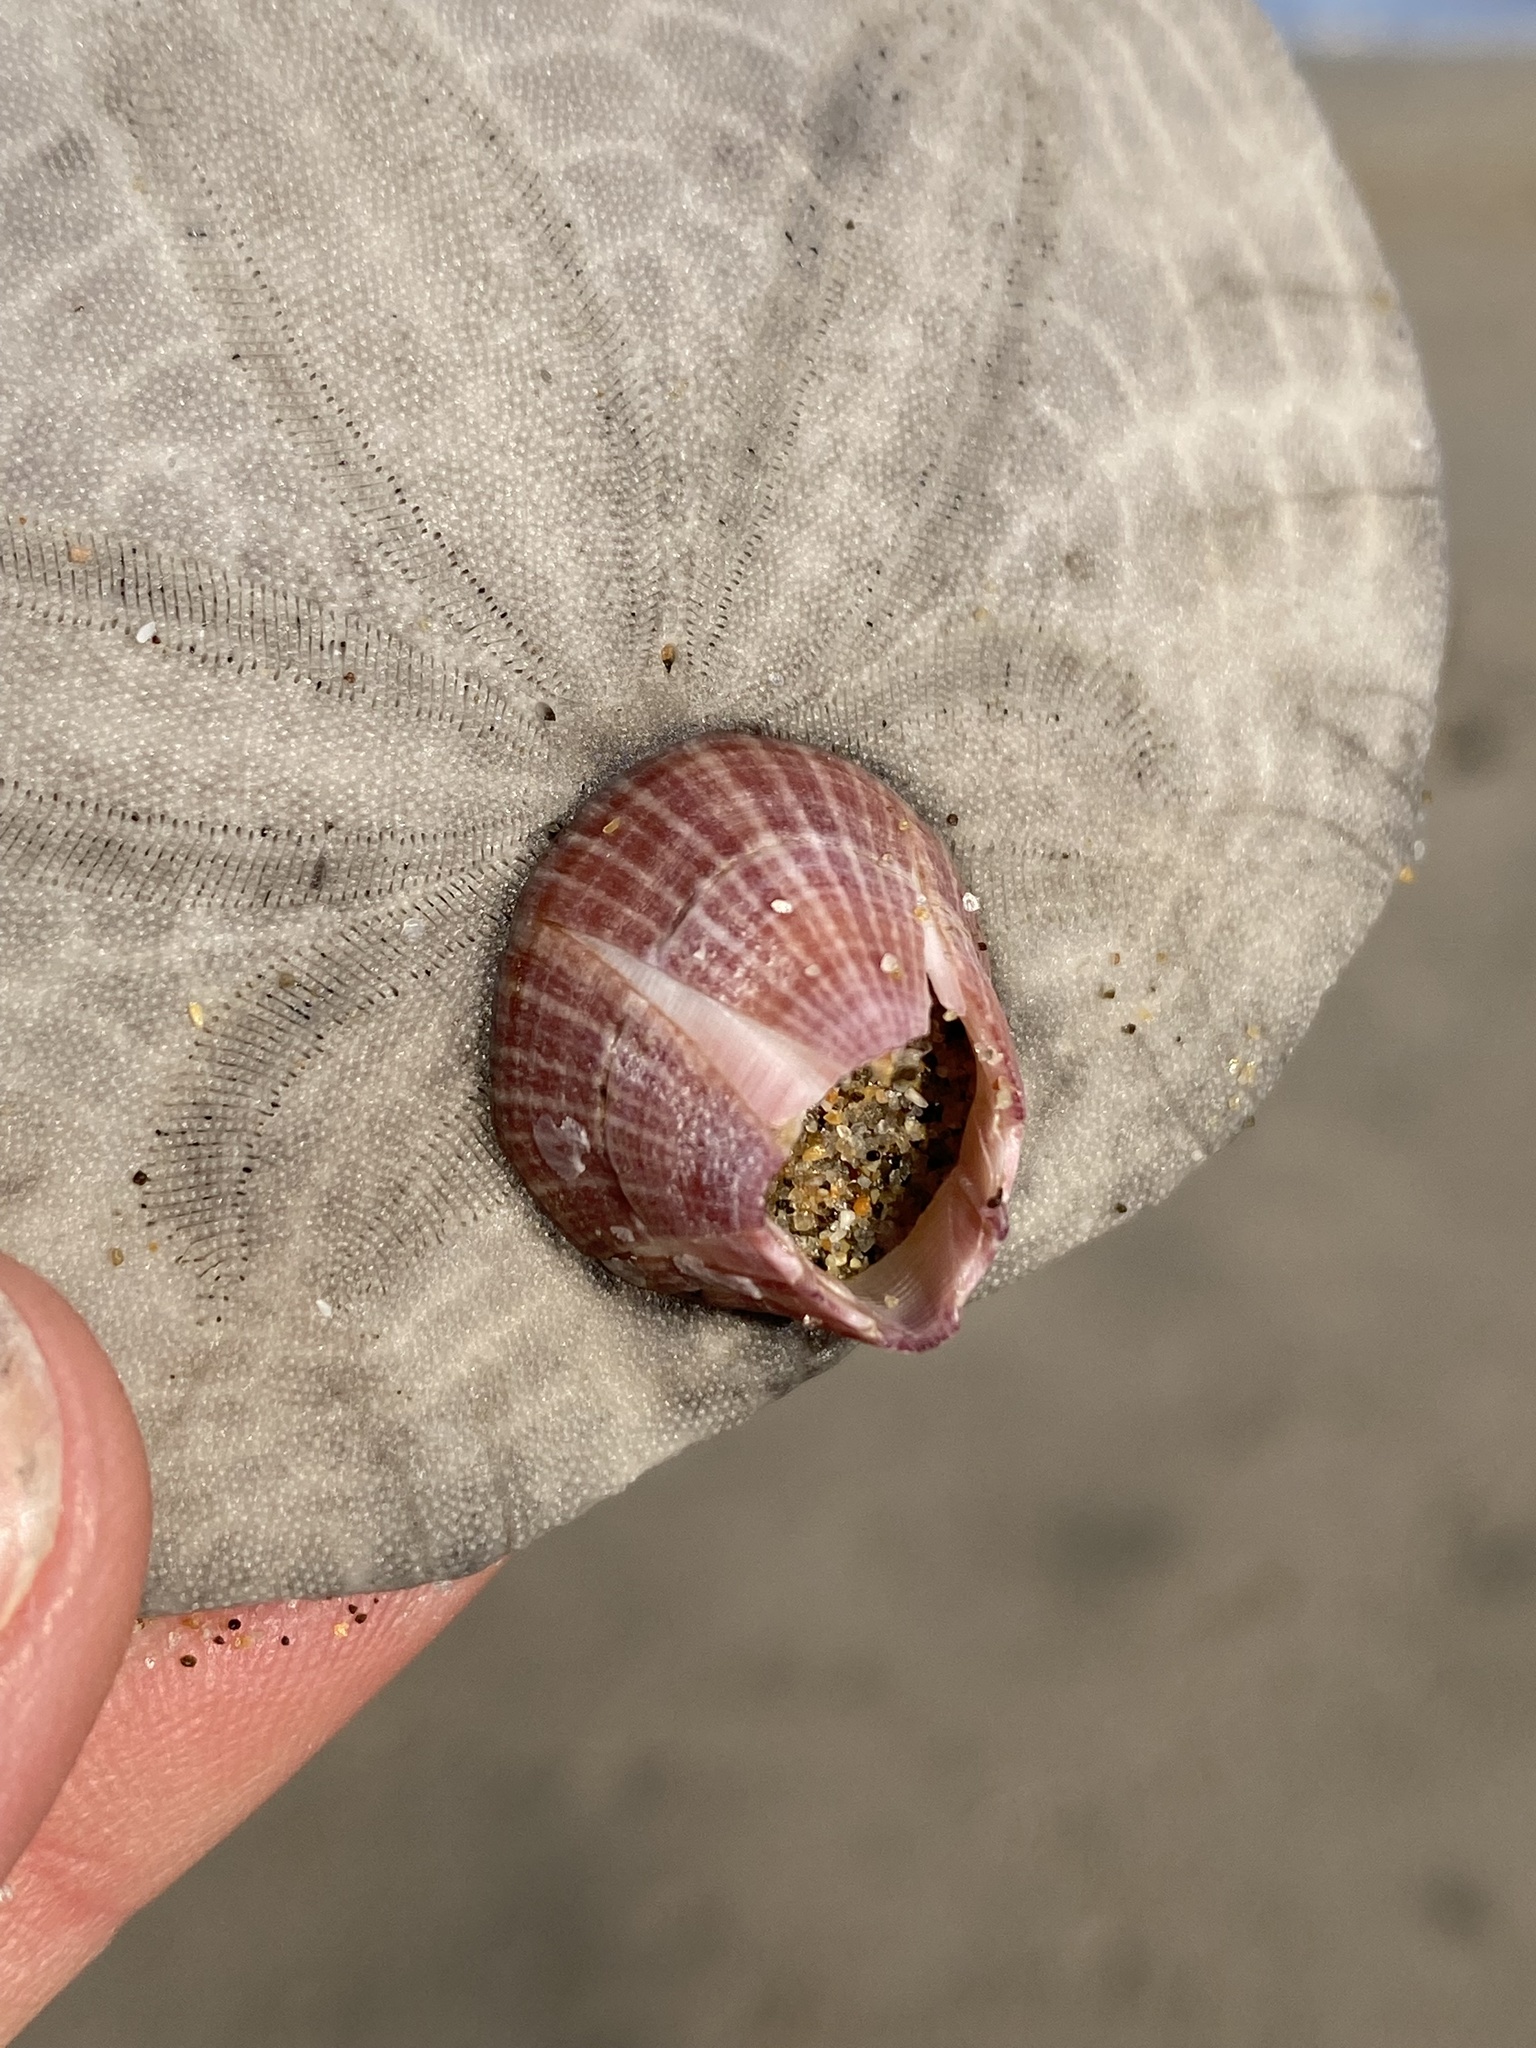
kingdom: Animalia
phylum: Arthropoda
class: Maxillopoda
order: Sessilia
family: Balanidae
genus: Paraconcavus
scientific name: Paraconcavus pacificus
